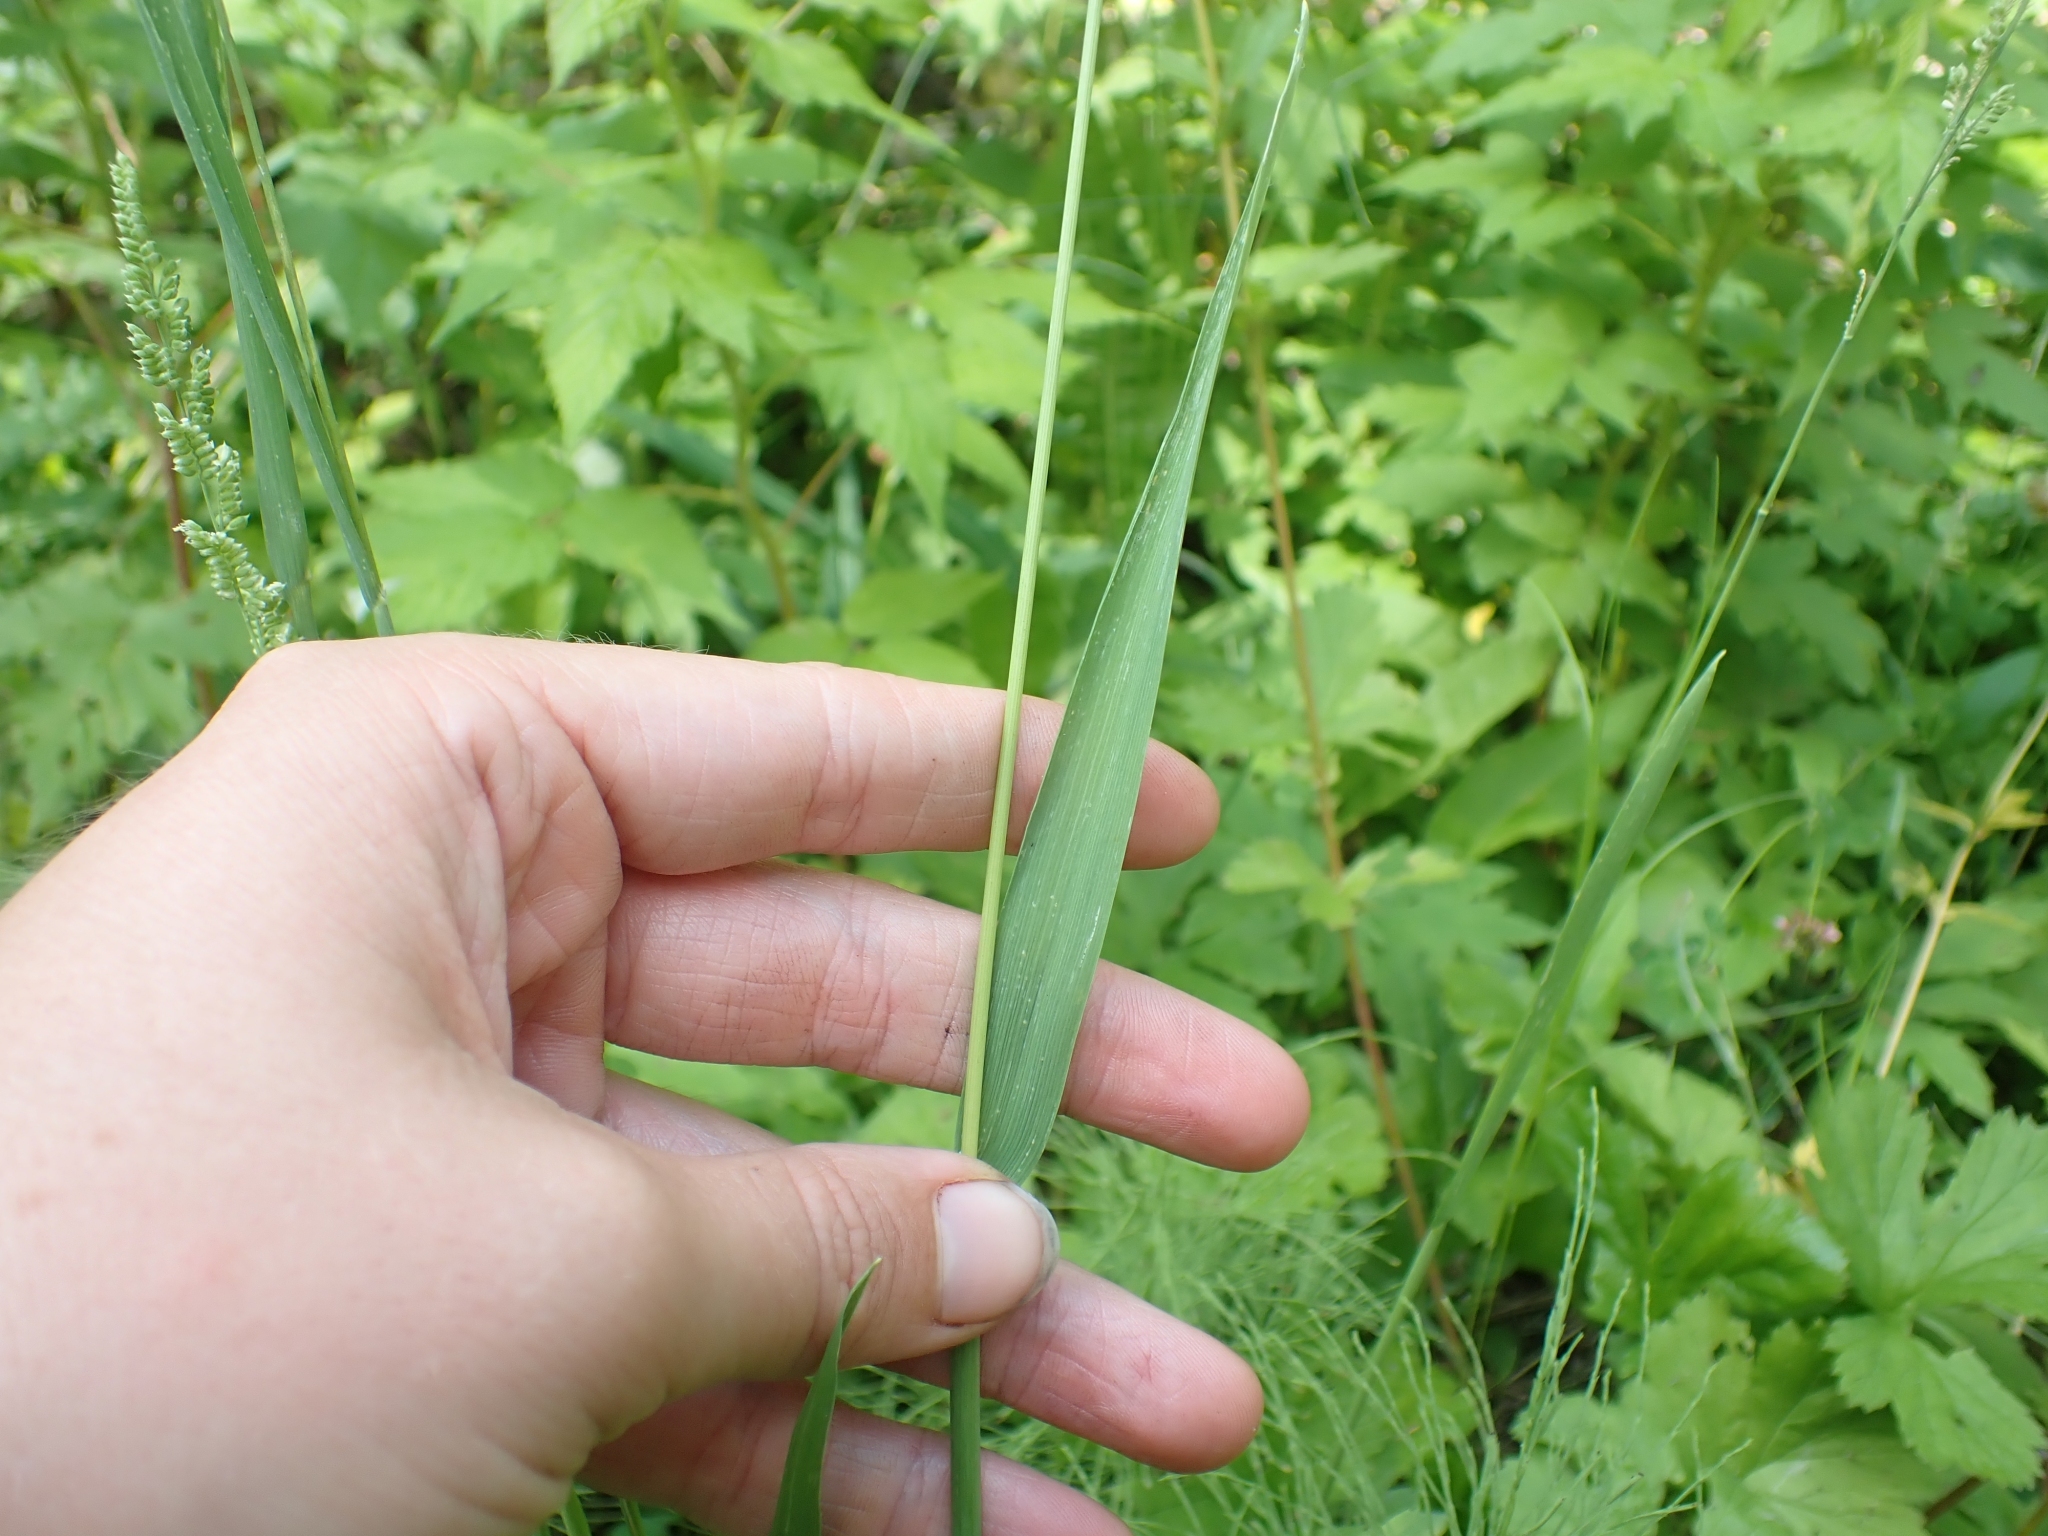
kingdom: Plantae
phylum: Tracheophyta
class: Liliopsida
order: Poales
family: Poaceae
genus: Beckmannia
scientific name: Beckmannia syzigachne
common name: American slough-grass
